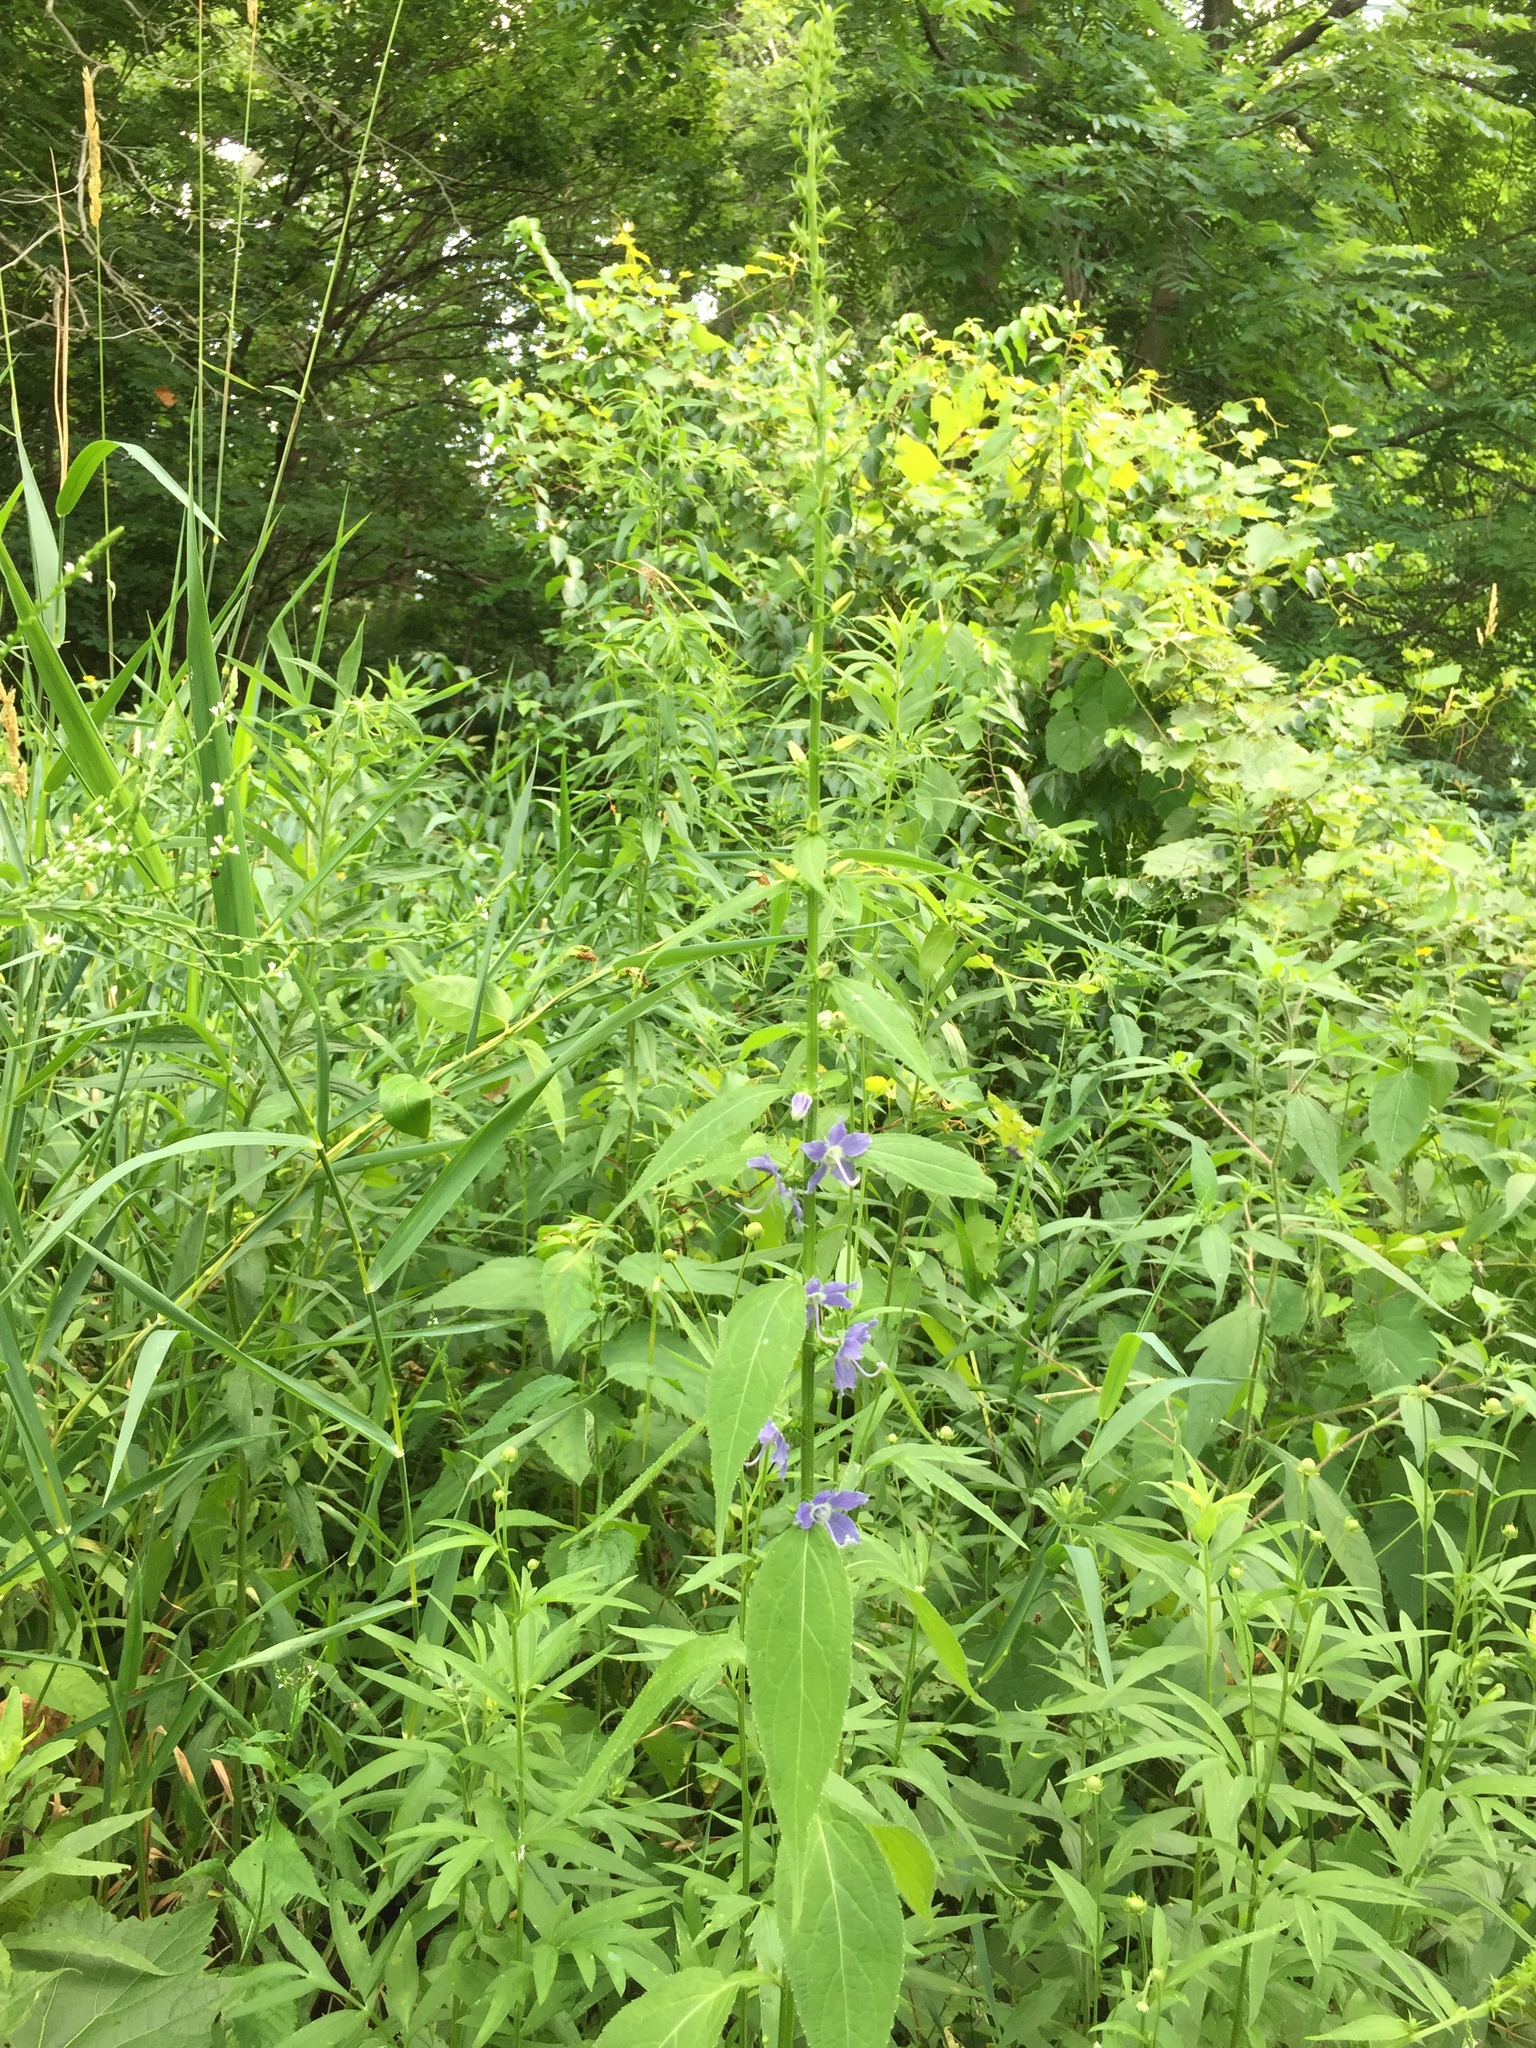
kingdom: Plantae
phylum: Tracheophyta
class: Magnoliopsida
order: Asterales
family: Campanulaceae
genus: Campanulastrum
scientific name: Campanulastrum americanum
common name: American bellflower
